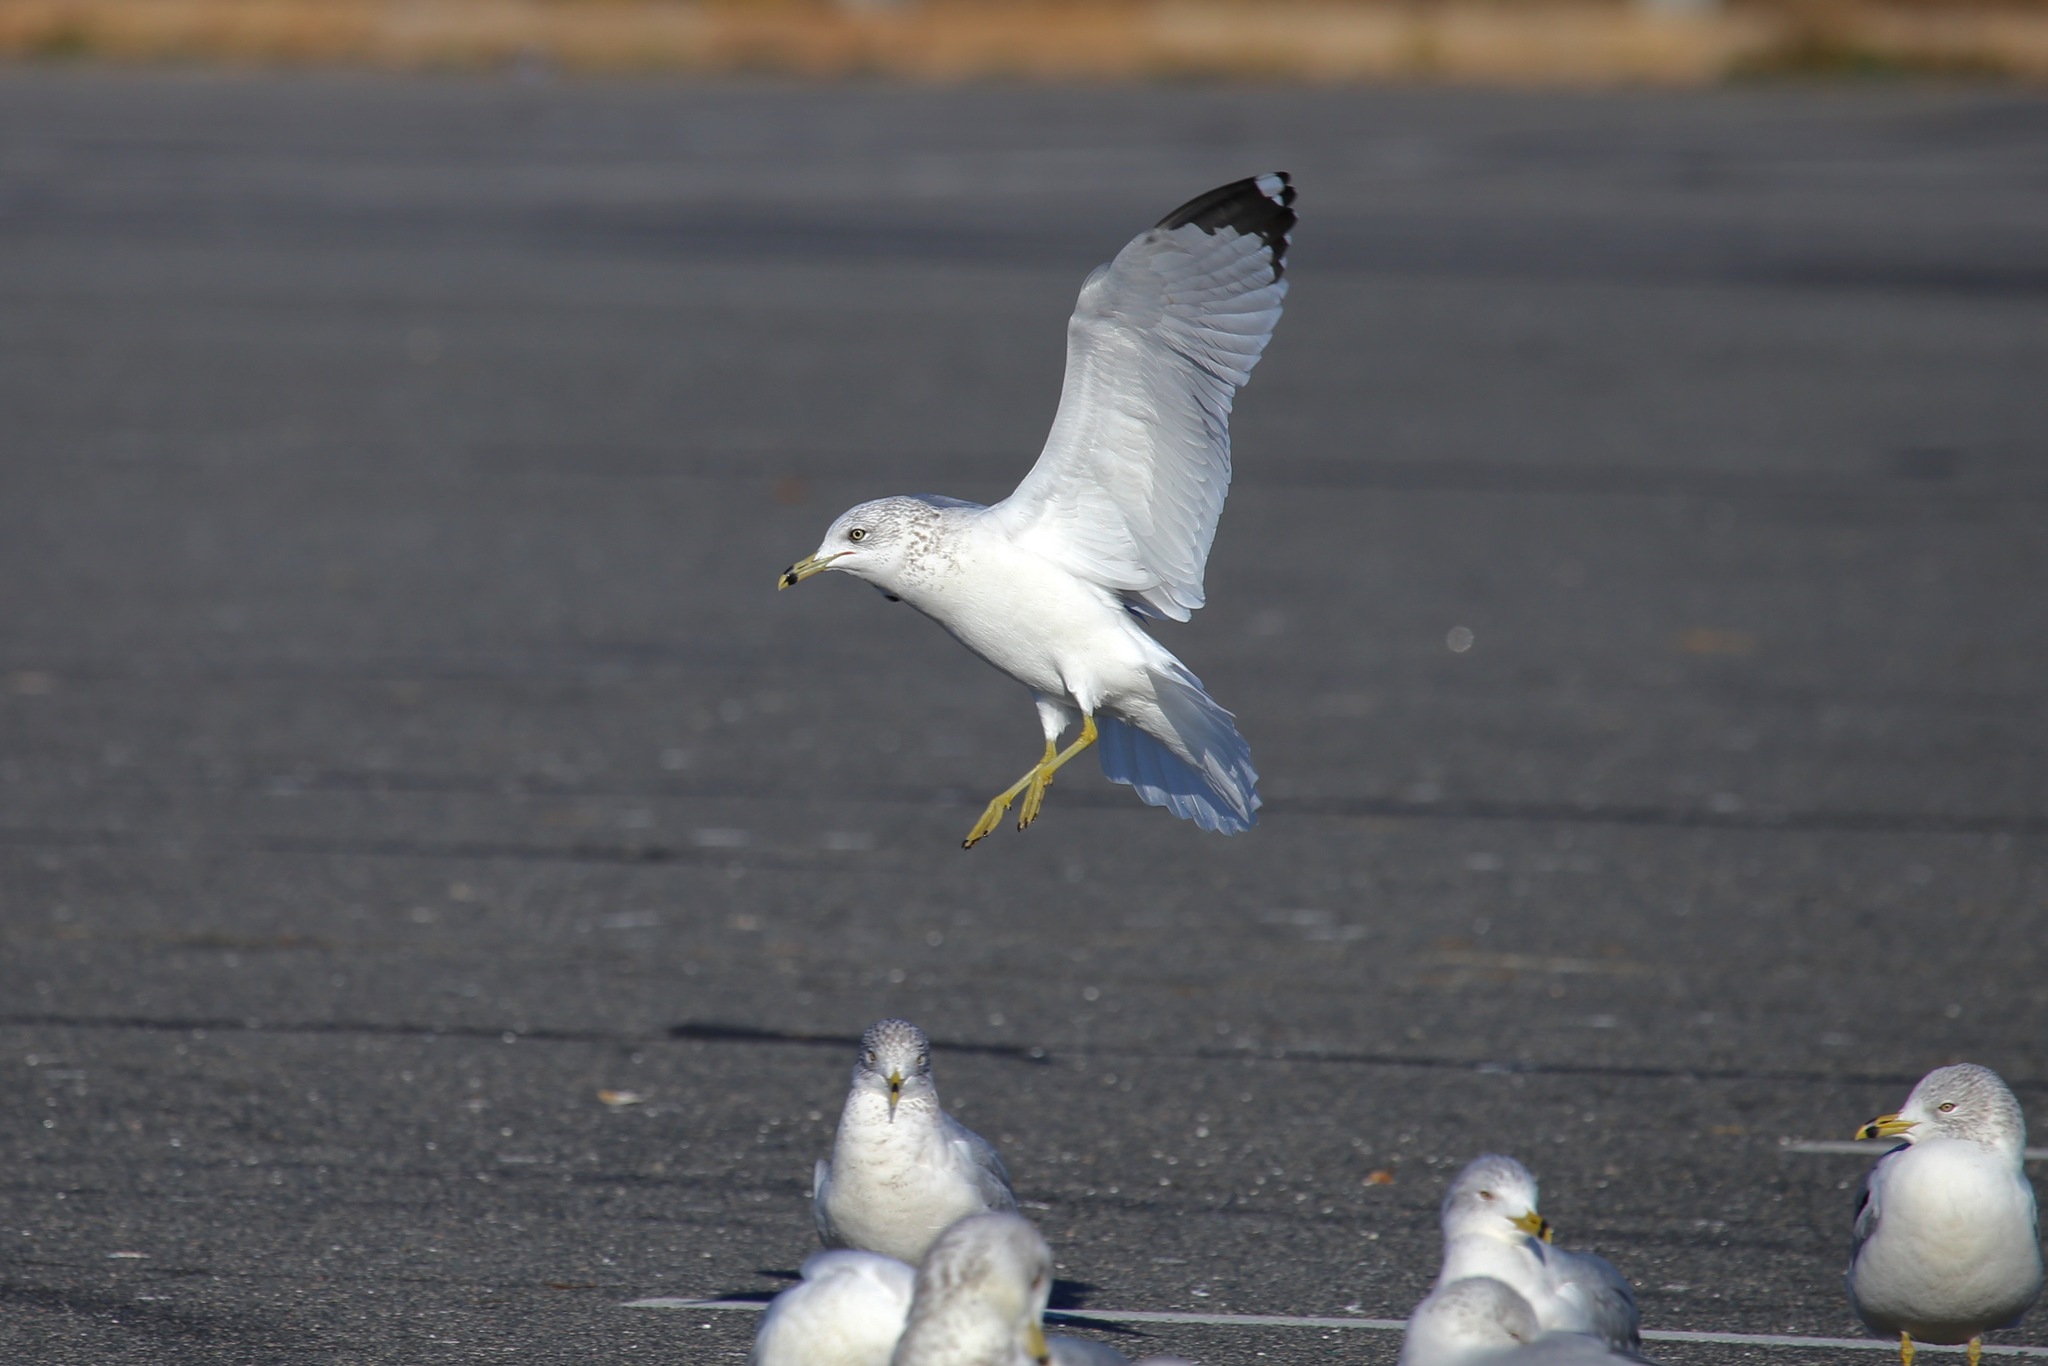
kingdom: Animalia
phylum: Chordata
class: Aves
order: Charadriiformes
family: Laridae
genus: Larus
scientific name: Larus delawarensis
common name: Ring-billed gull
